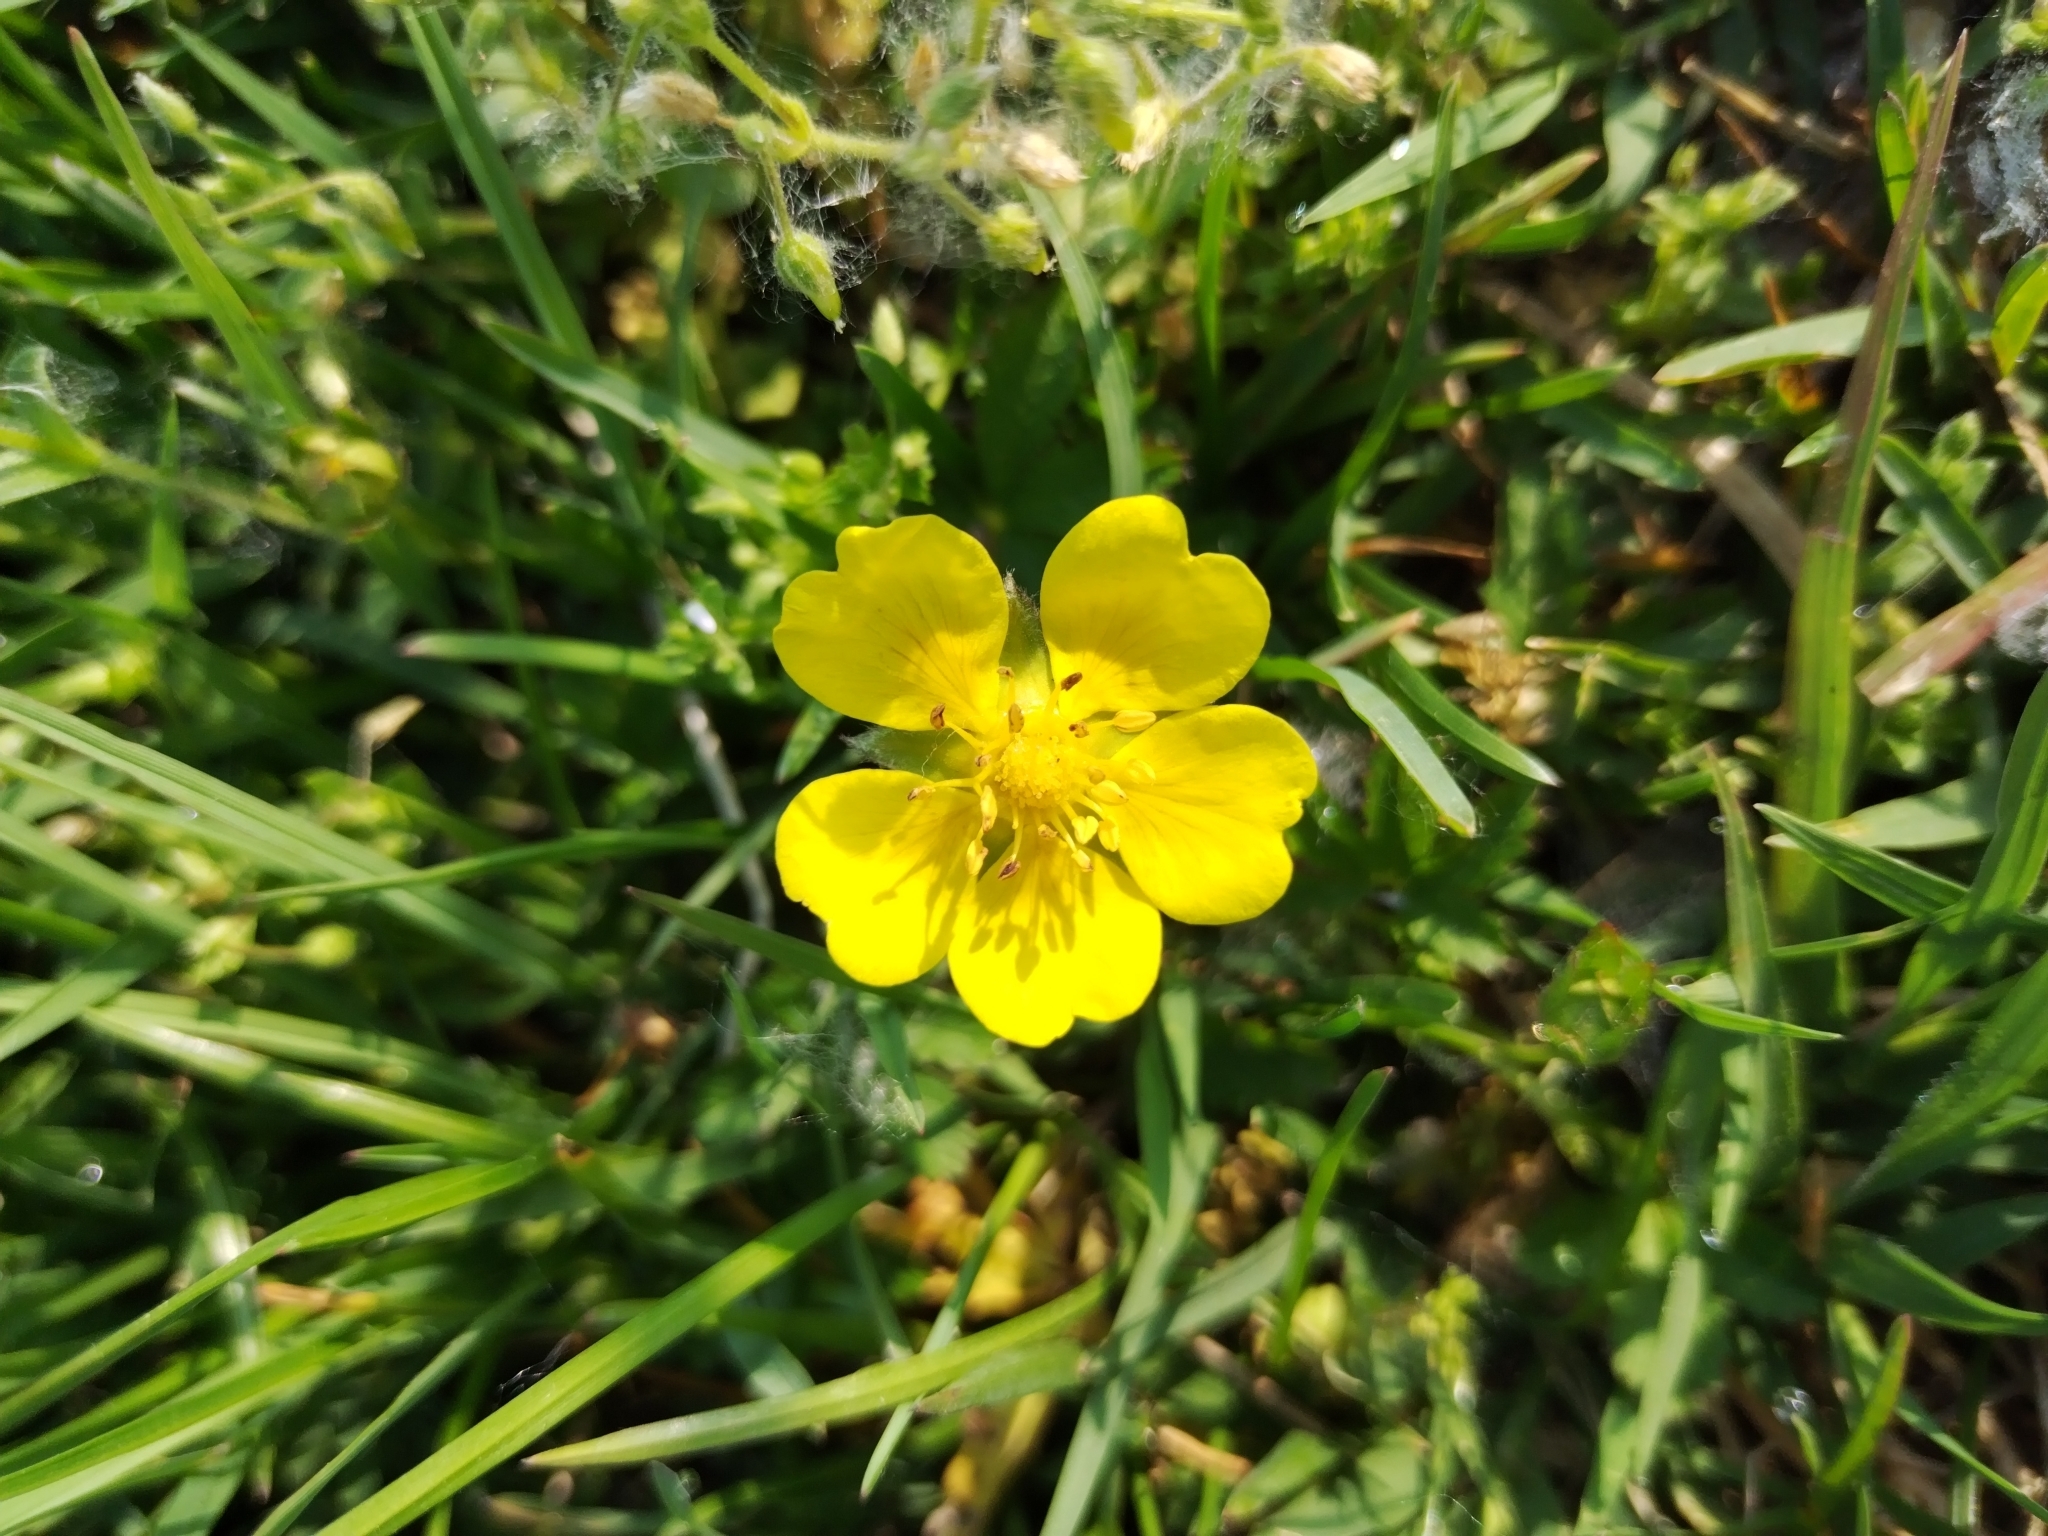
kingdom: Plantae
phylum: Tracheophyta
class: Magnoliopsida
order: Rosales
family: Rosaceae
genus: Potentilla
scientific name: Potentilla reptans
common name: Creeping cinquefoil
